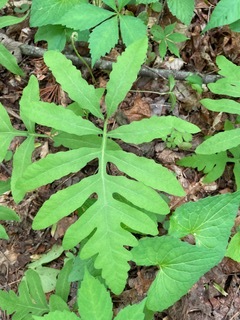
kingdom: Plantae
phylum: Tracheophyta
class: Polypodiopsida
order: Polypodiales
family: Onocleaceae
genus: Onoclea
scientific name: Onoclea sensibilis
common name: Sensitive fern
